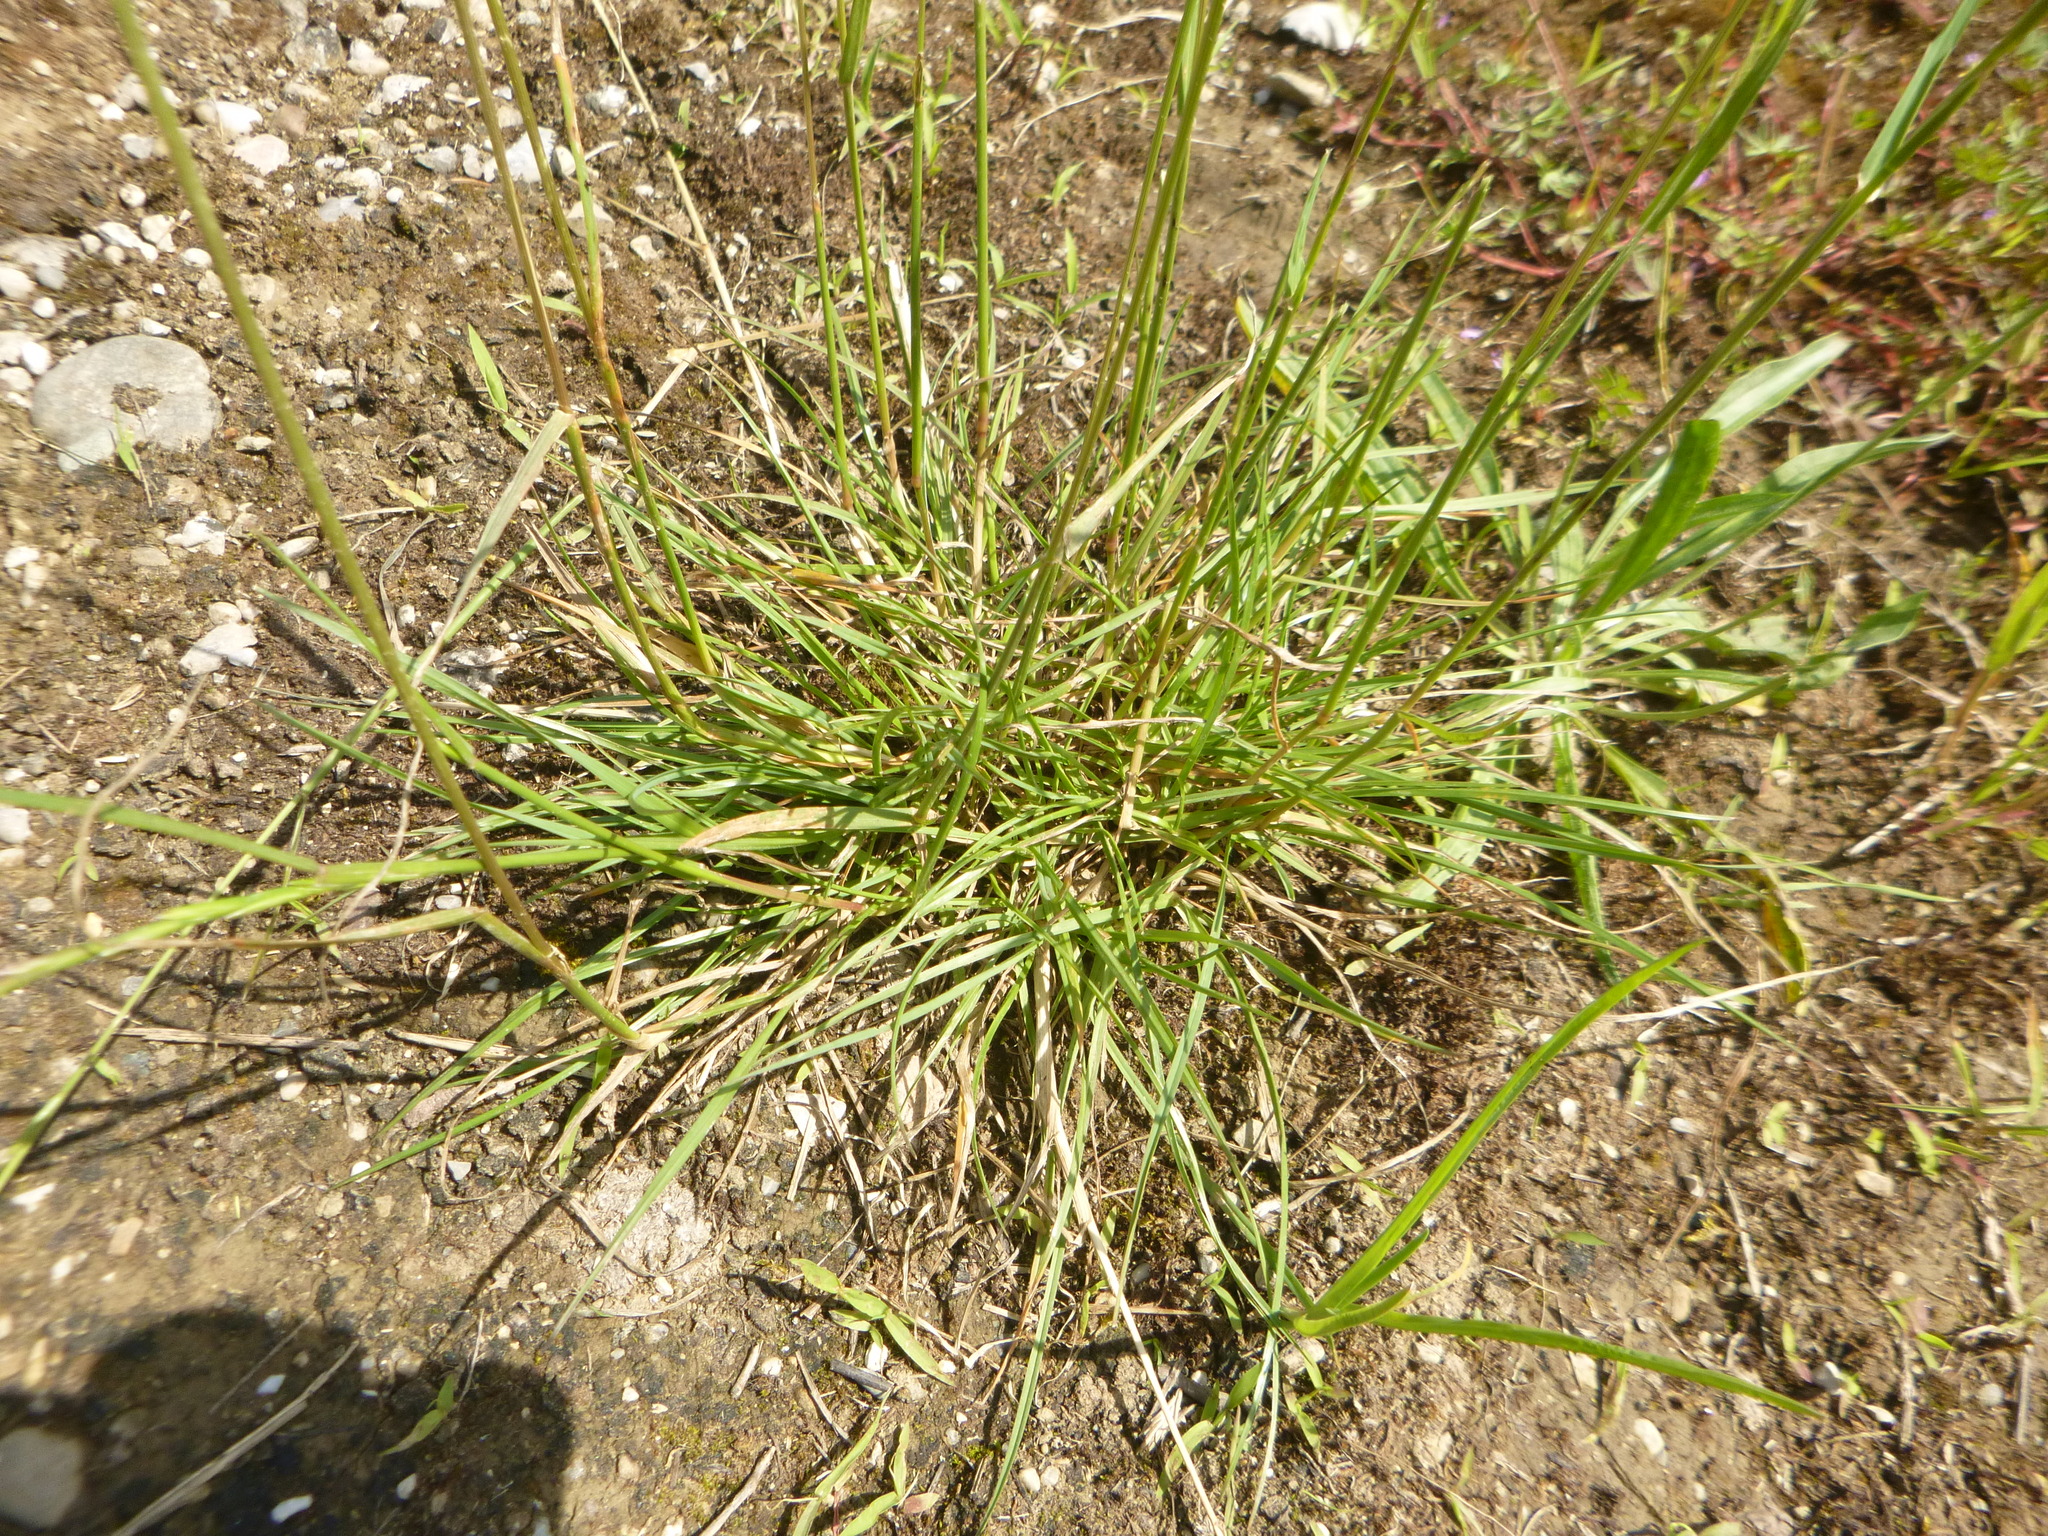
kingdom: Plantae
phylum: Tracheophyta
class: Liliopsida
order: Poales
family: Poaceae
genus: Lolium
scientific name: Lolium perenne
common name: Perennial ryegrass
